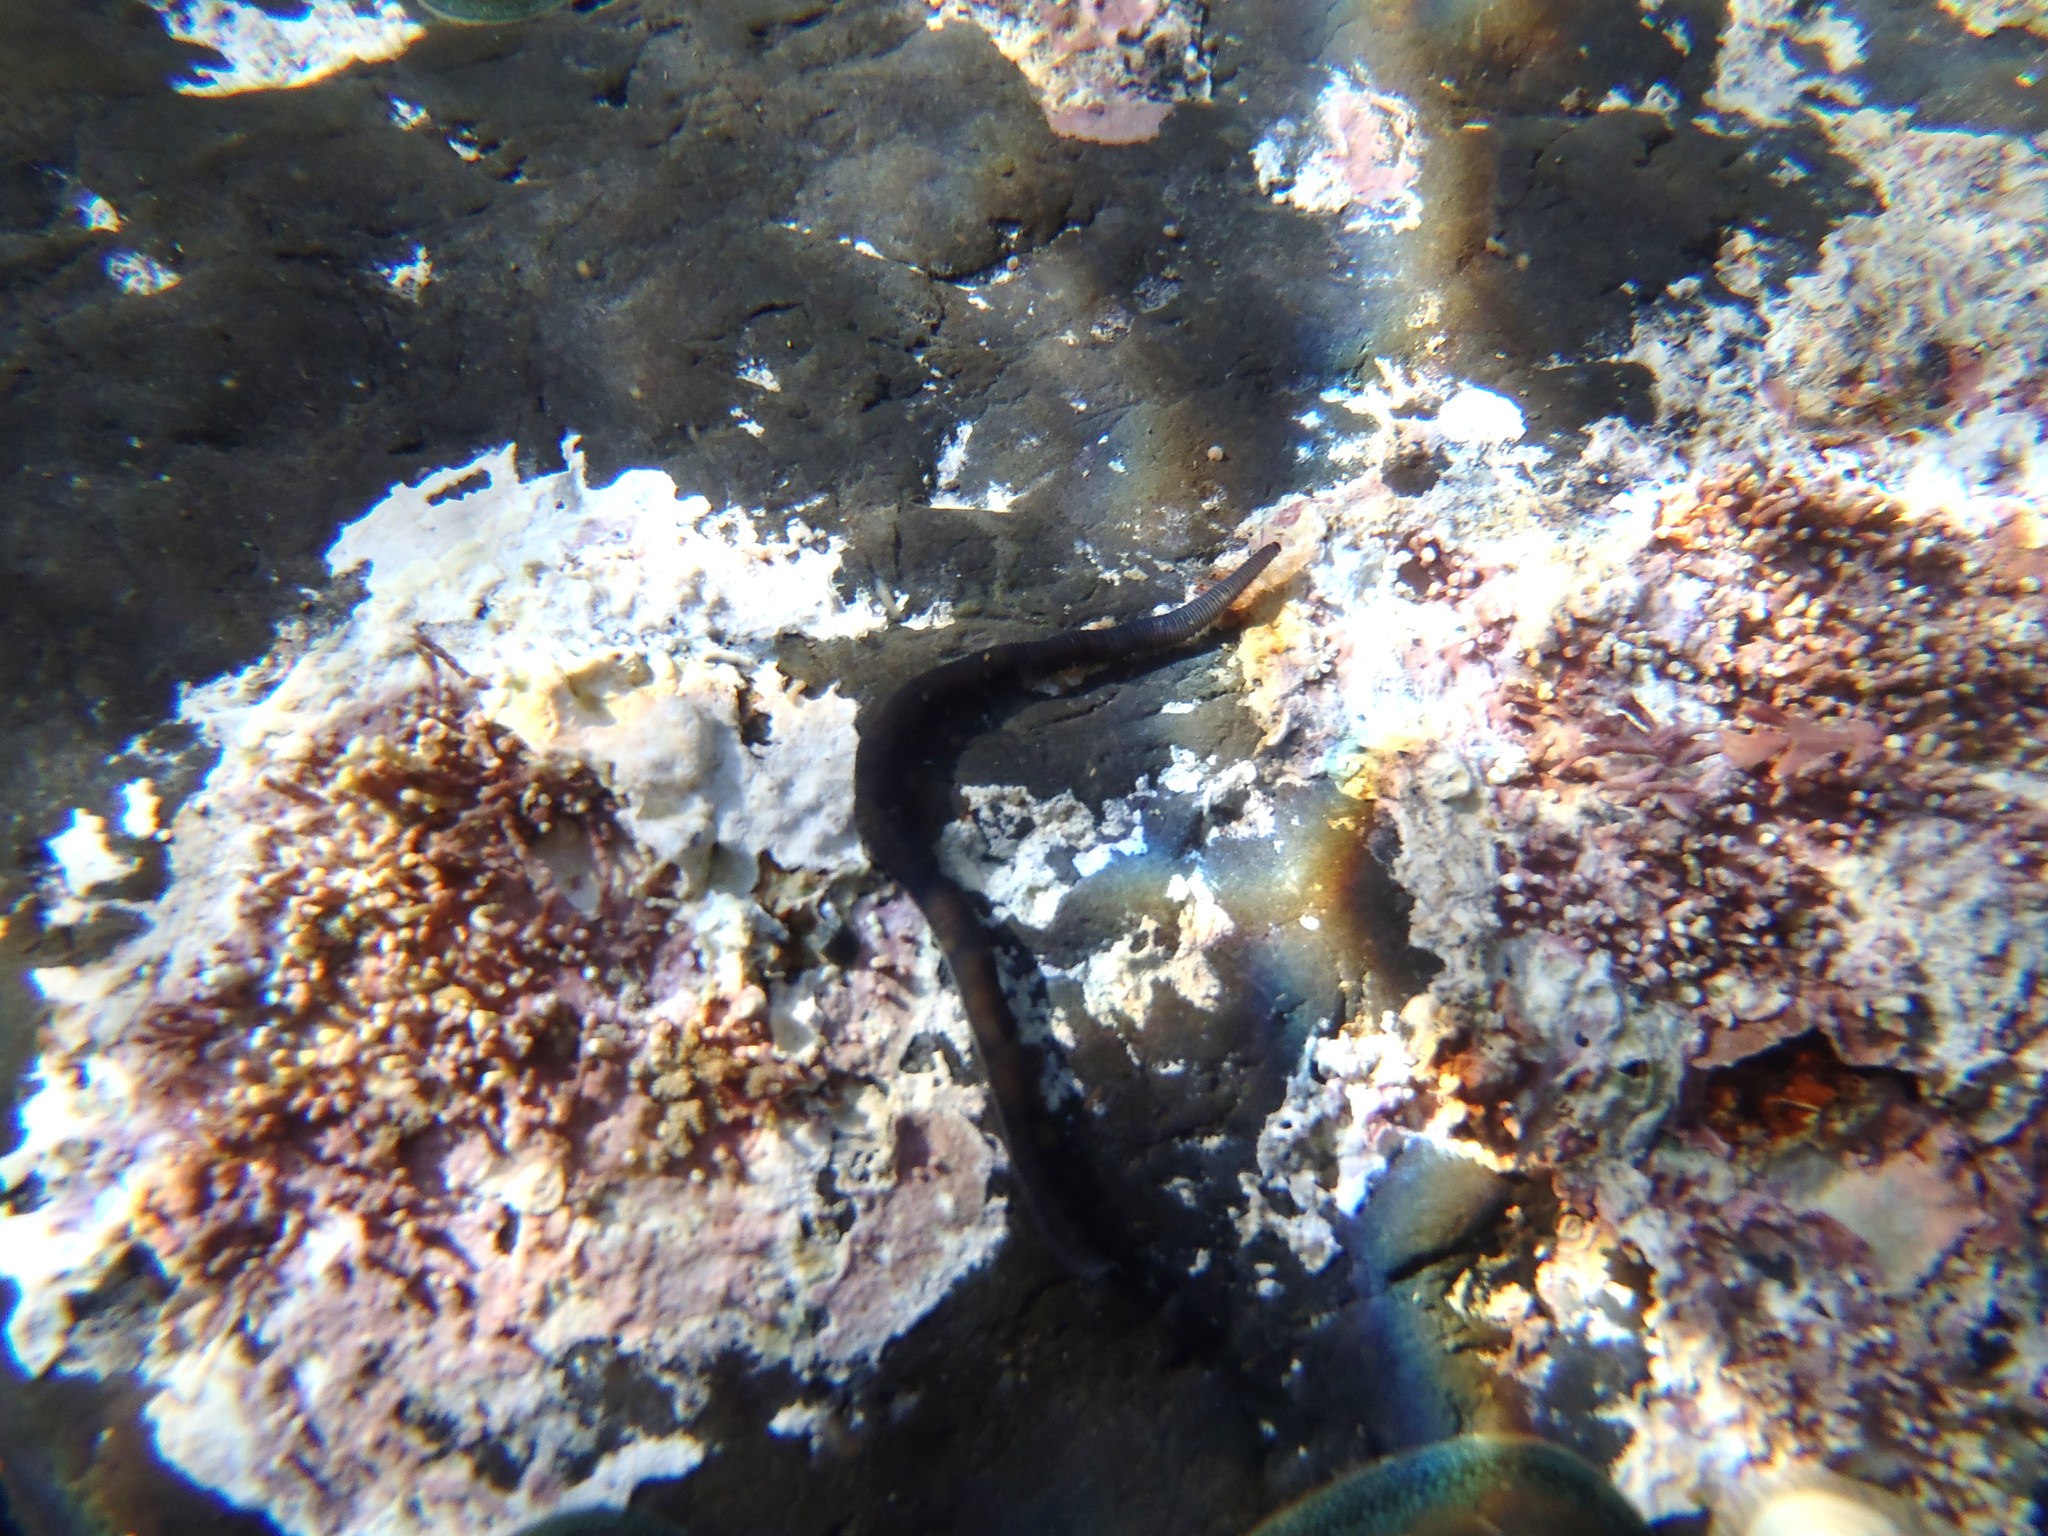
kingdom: Animalia
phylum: Annelida
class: Polychaeta
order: Phyllodocida
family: Syllidae
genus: Odontosyllis
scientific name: Odontosyllis polycera
